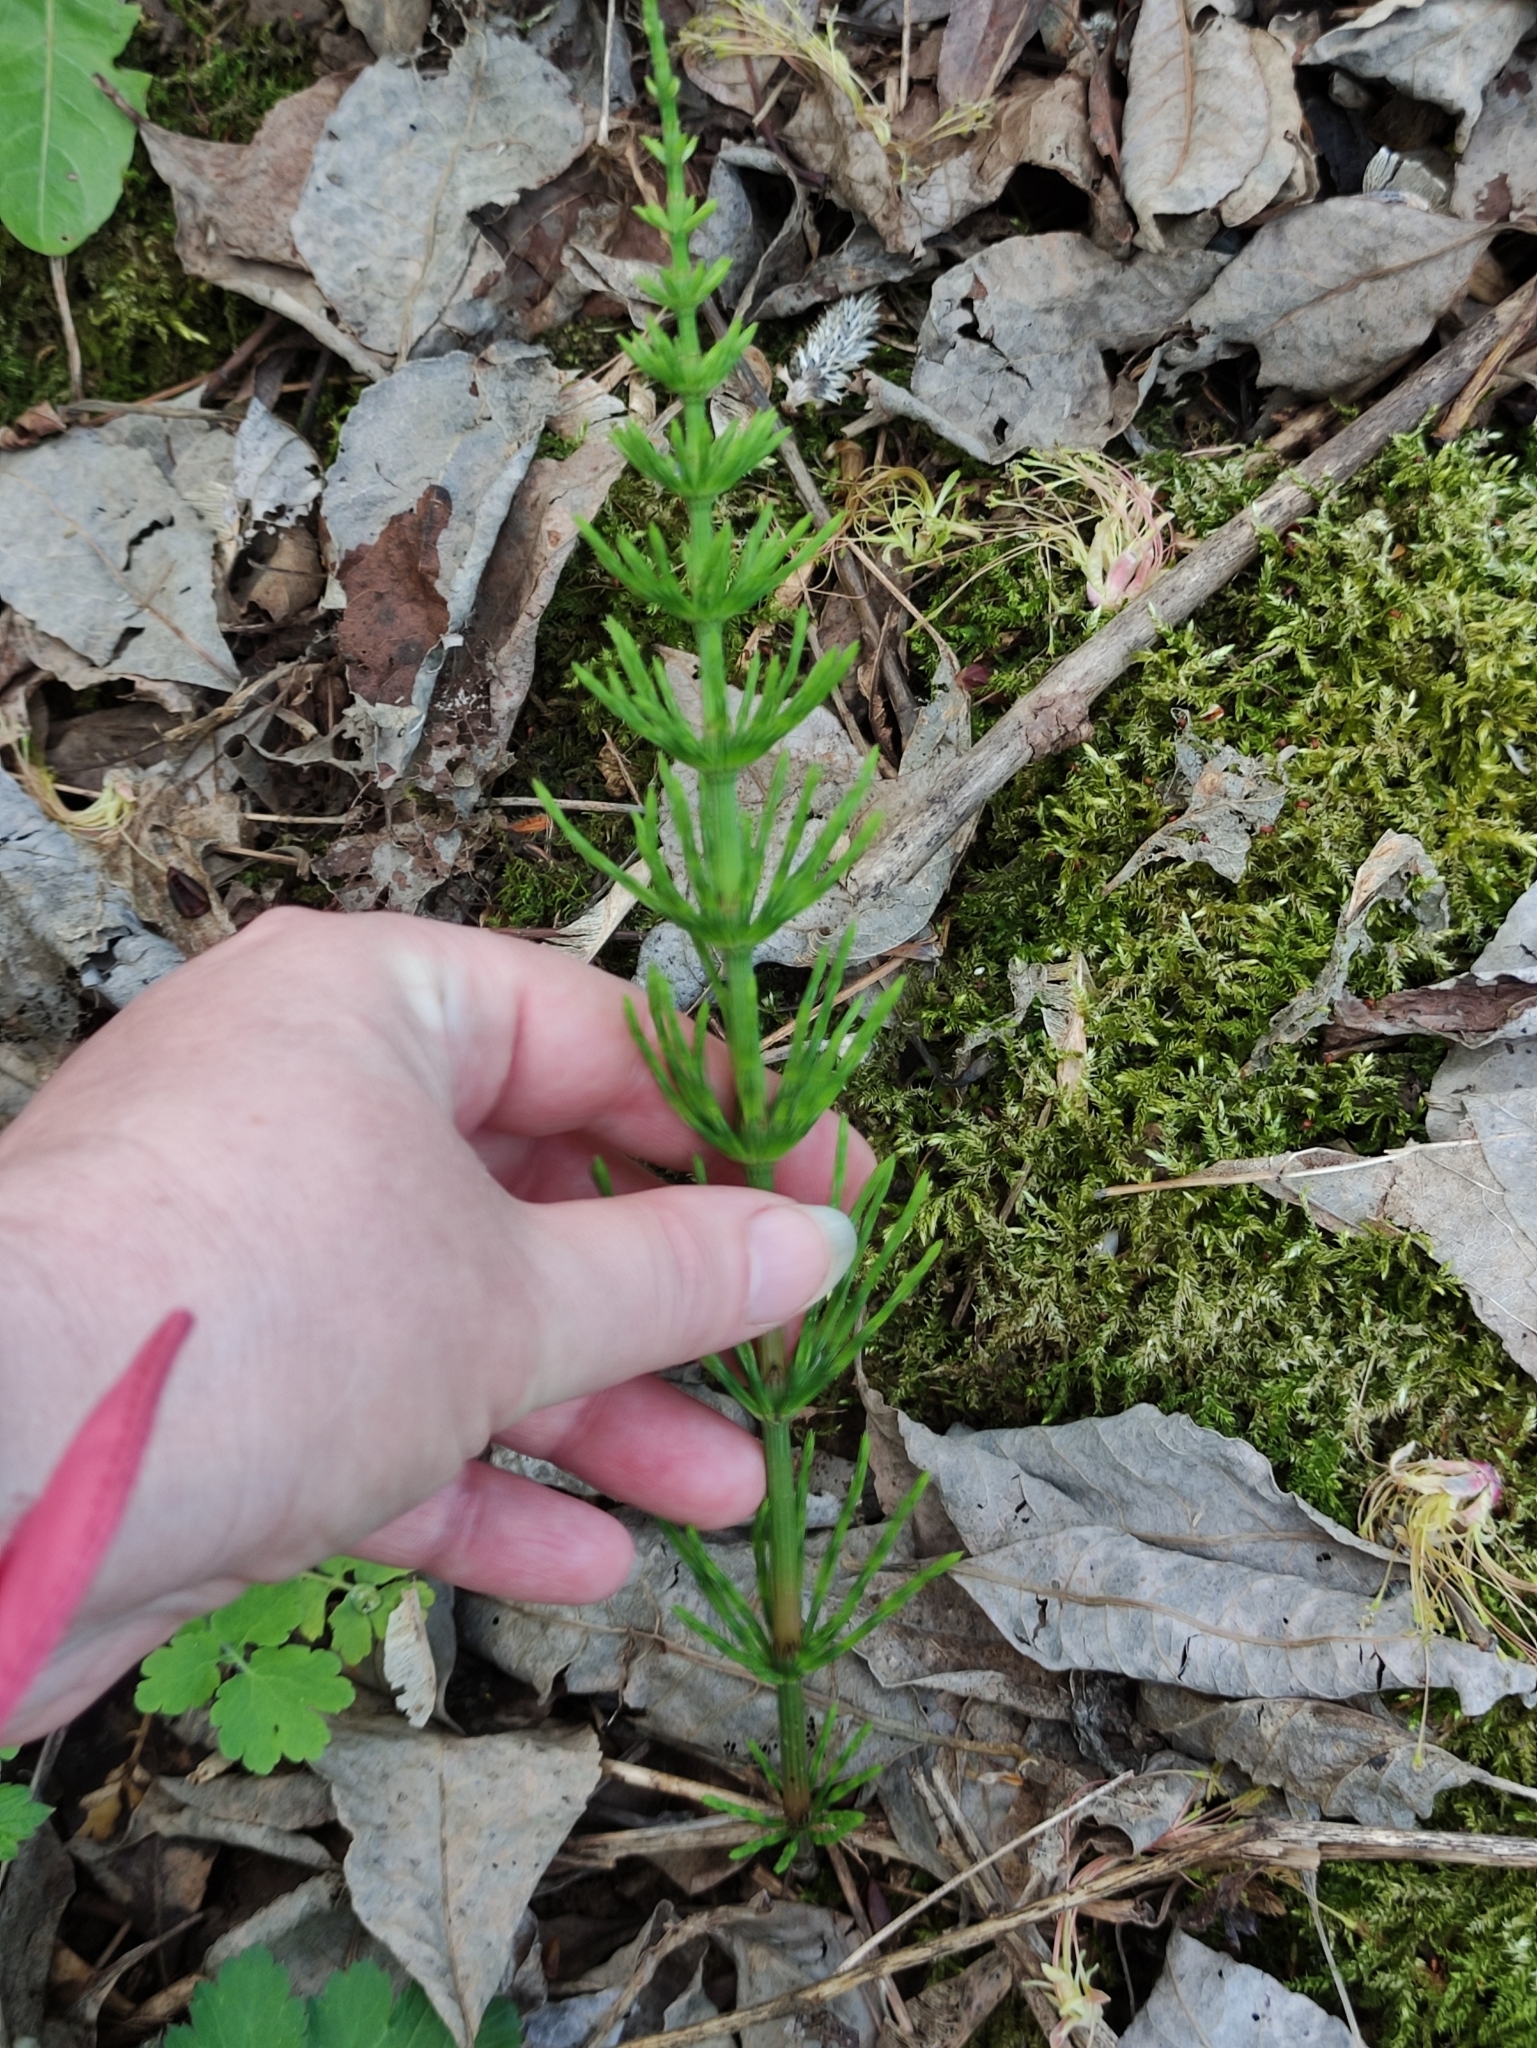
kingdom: Plantae
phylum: Tracheophyta
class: Polypodiopsida
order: Equisetales
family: Equisetaceae
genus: Equisetum
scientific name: Equisetum arvense
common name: Field horsetail
